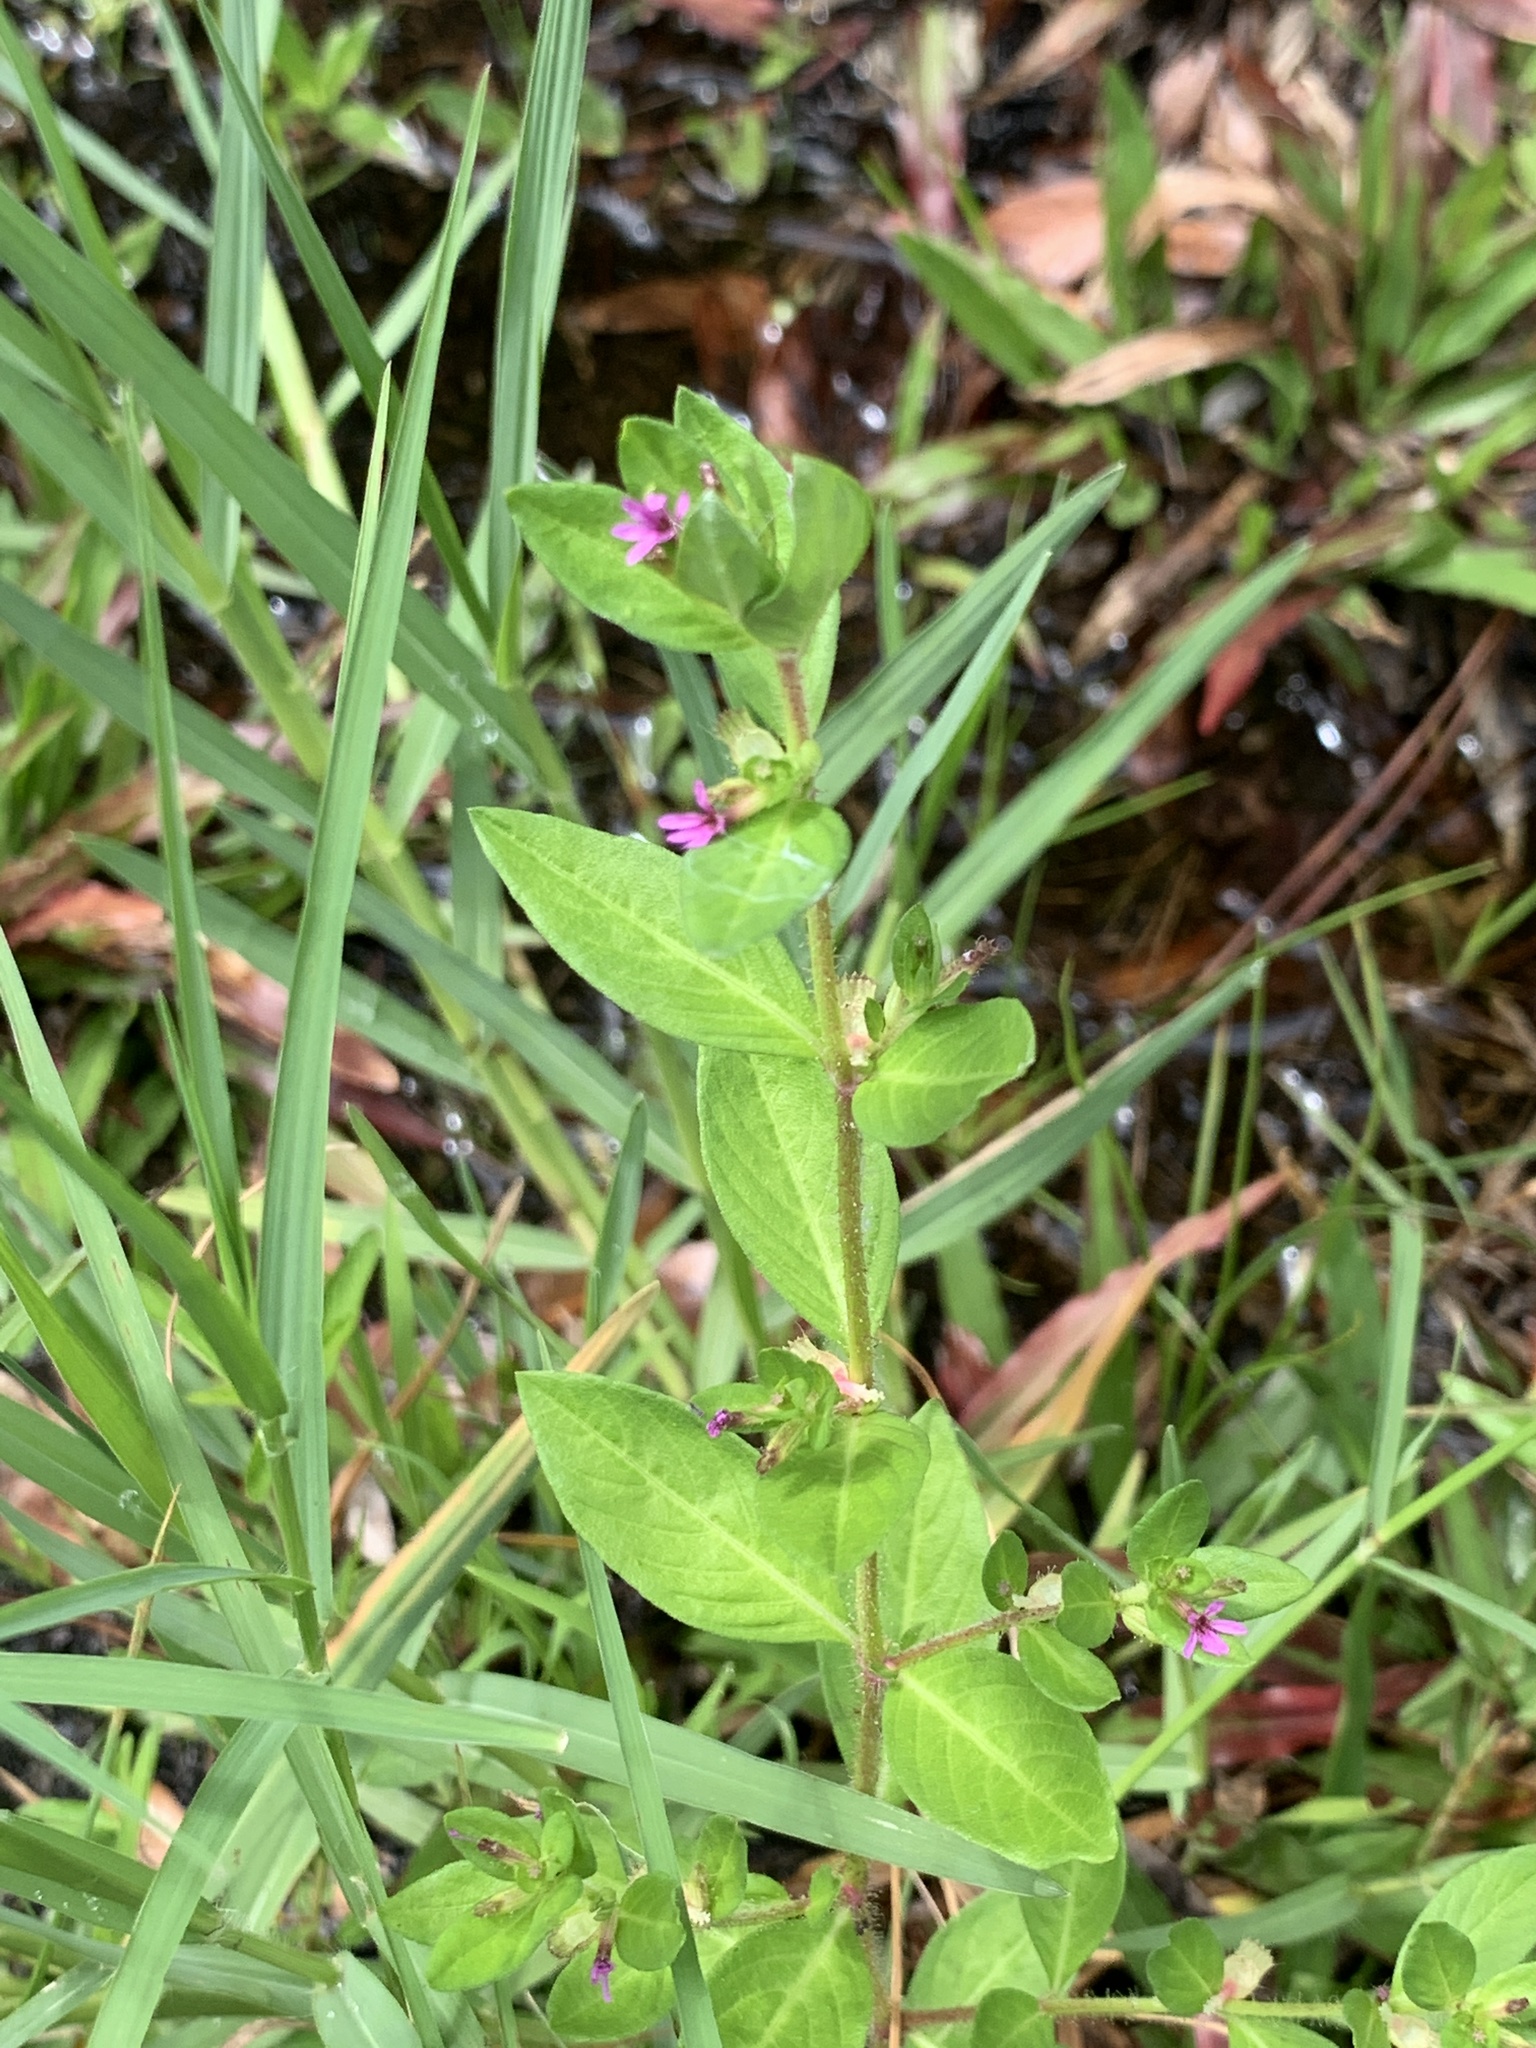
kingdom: Plantae
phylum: Tracheophyta
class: Magnoliopsida
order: Myrtales
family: Lythraceae
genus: Cuphea
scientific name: Cuphea carthagenensis
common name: Colombian waxweed
